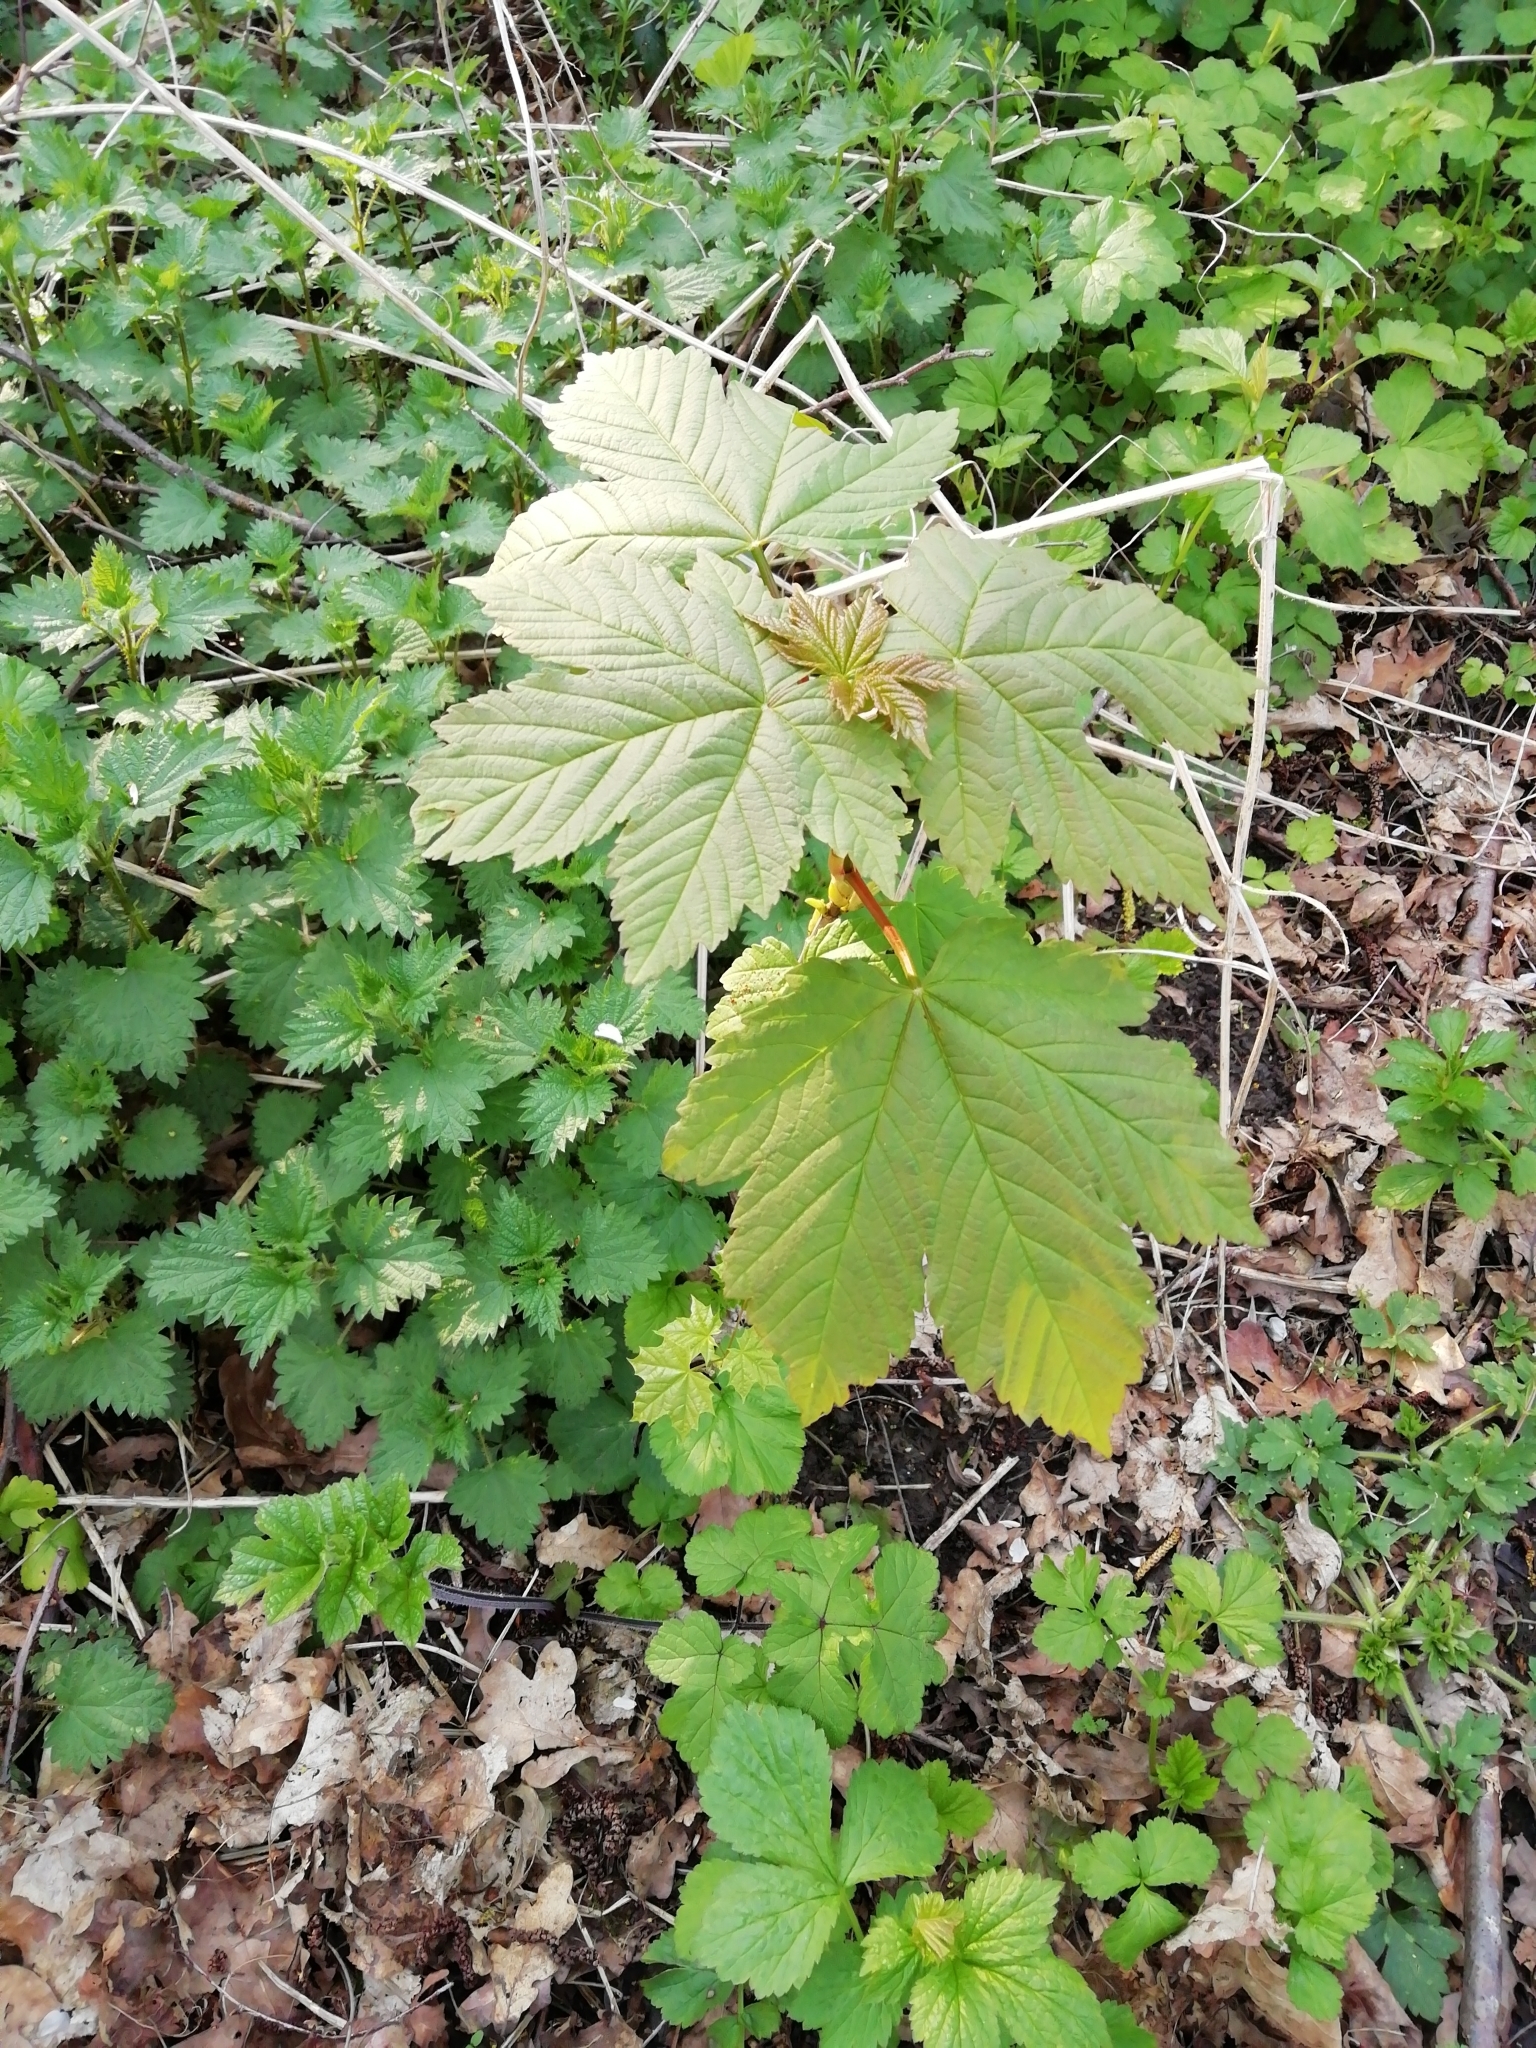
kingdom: Plantae
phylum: Tracheophyta
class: Magnoliopsida
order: Sapindales
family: Sapindaceae
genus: Acer
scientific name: Acer pseudoplatanus
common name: Sycamore
